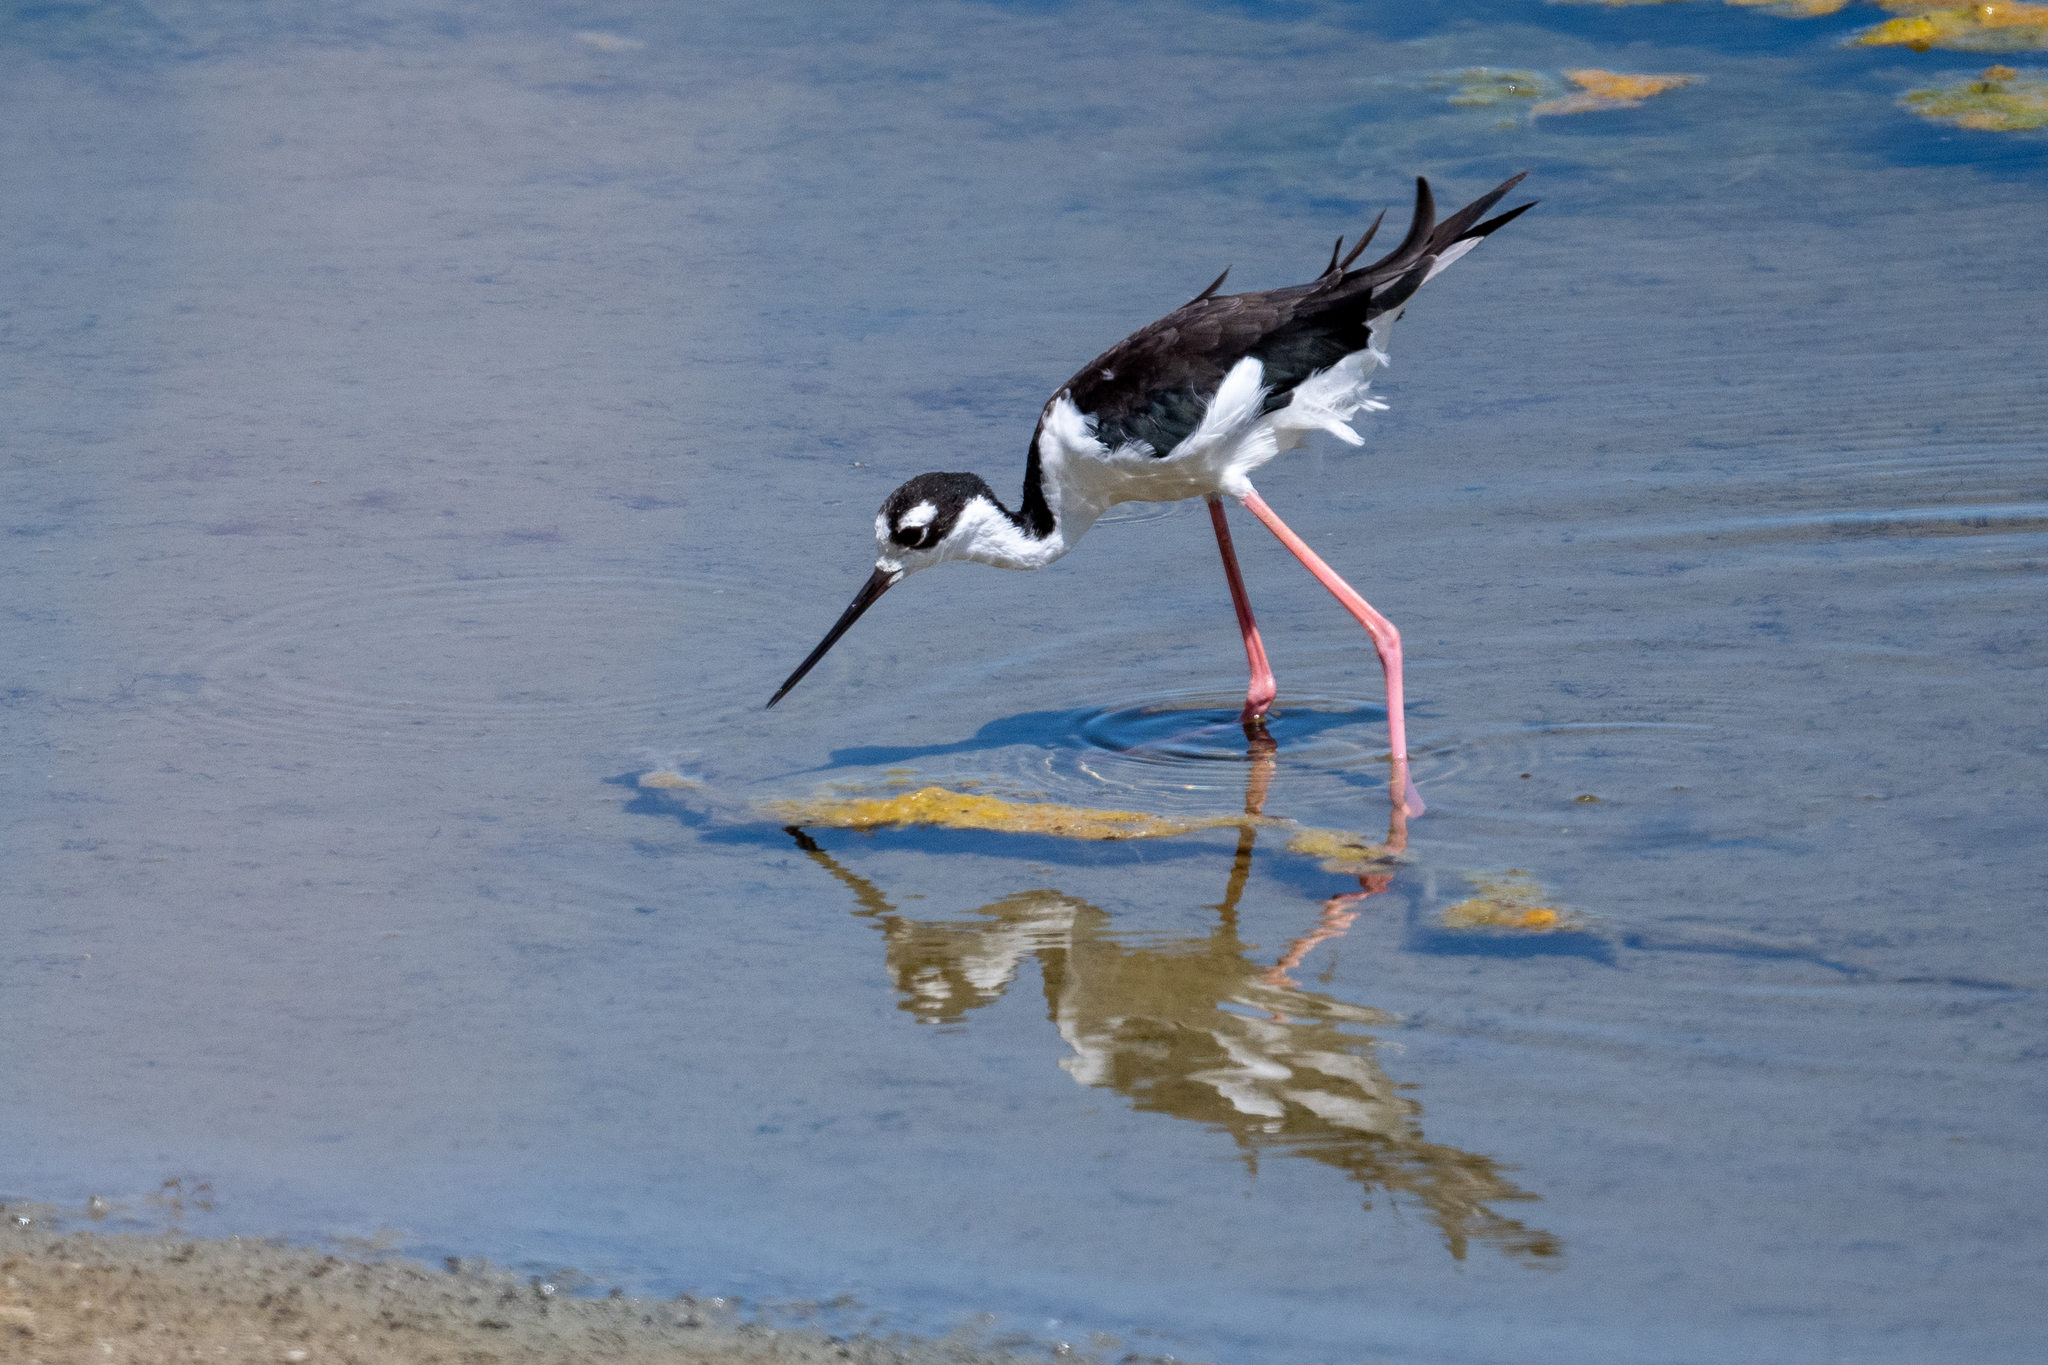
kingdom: Animalia
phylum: Chordata
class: Aves
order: Charadriiformes
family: Recurvirostridae
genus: Himantopus
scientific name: Himantopus mexicanus
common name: Black-necked stilt
